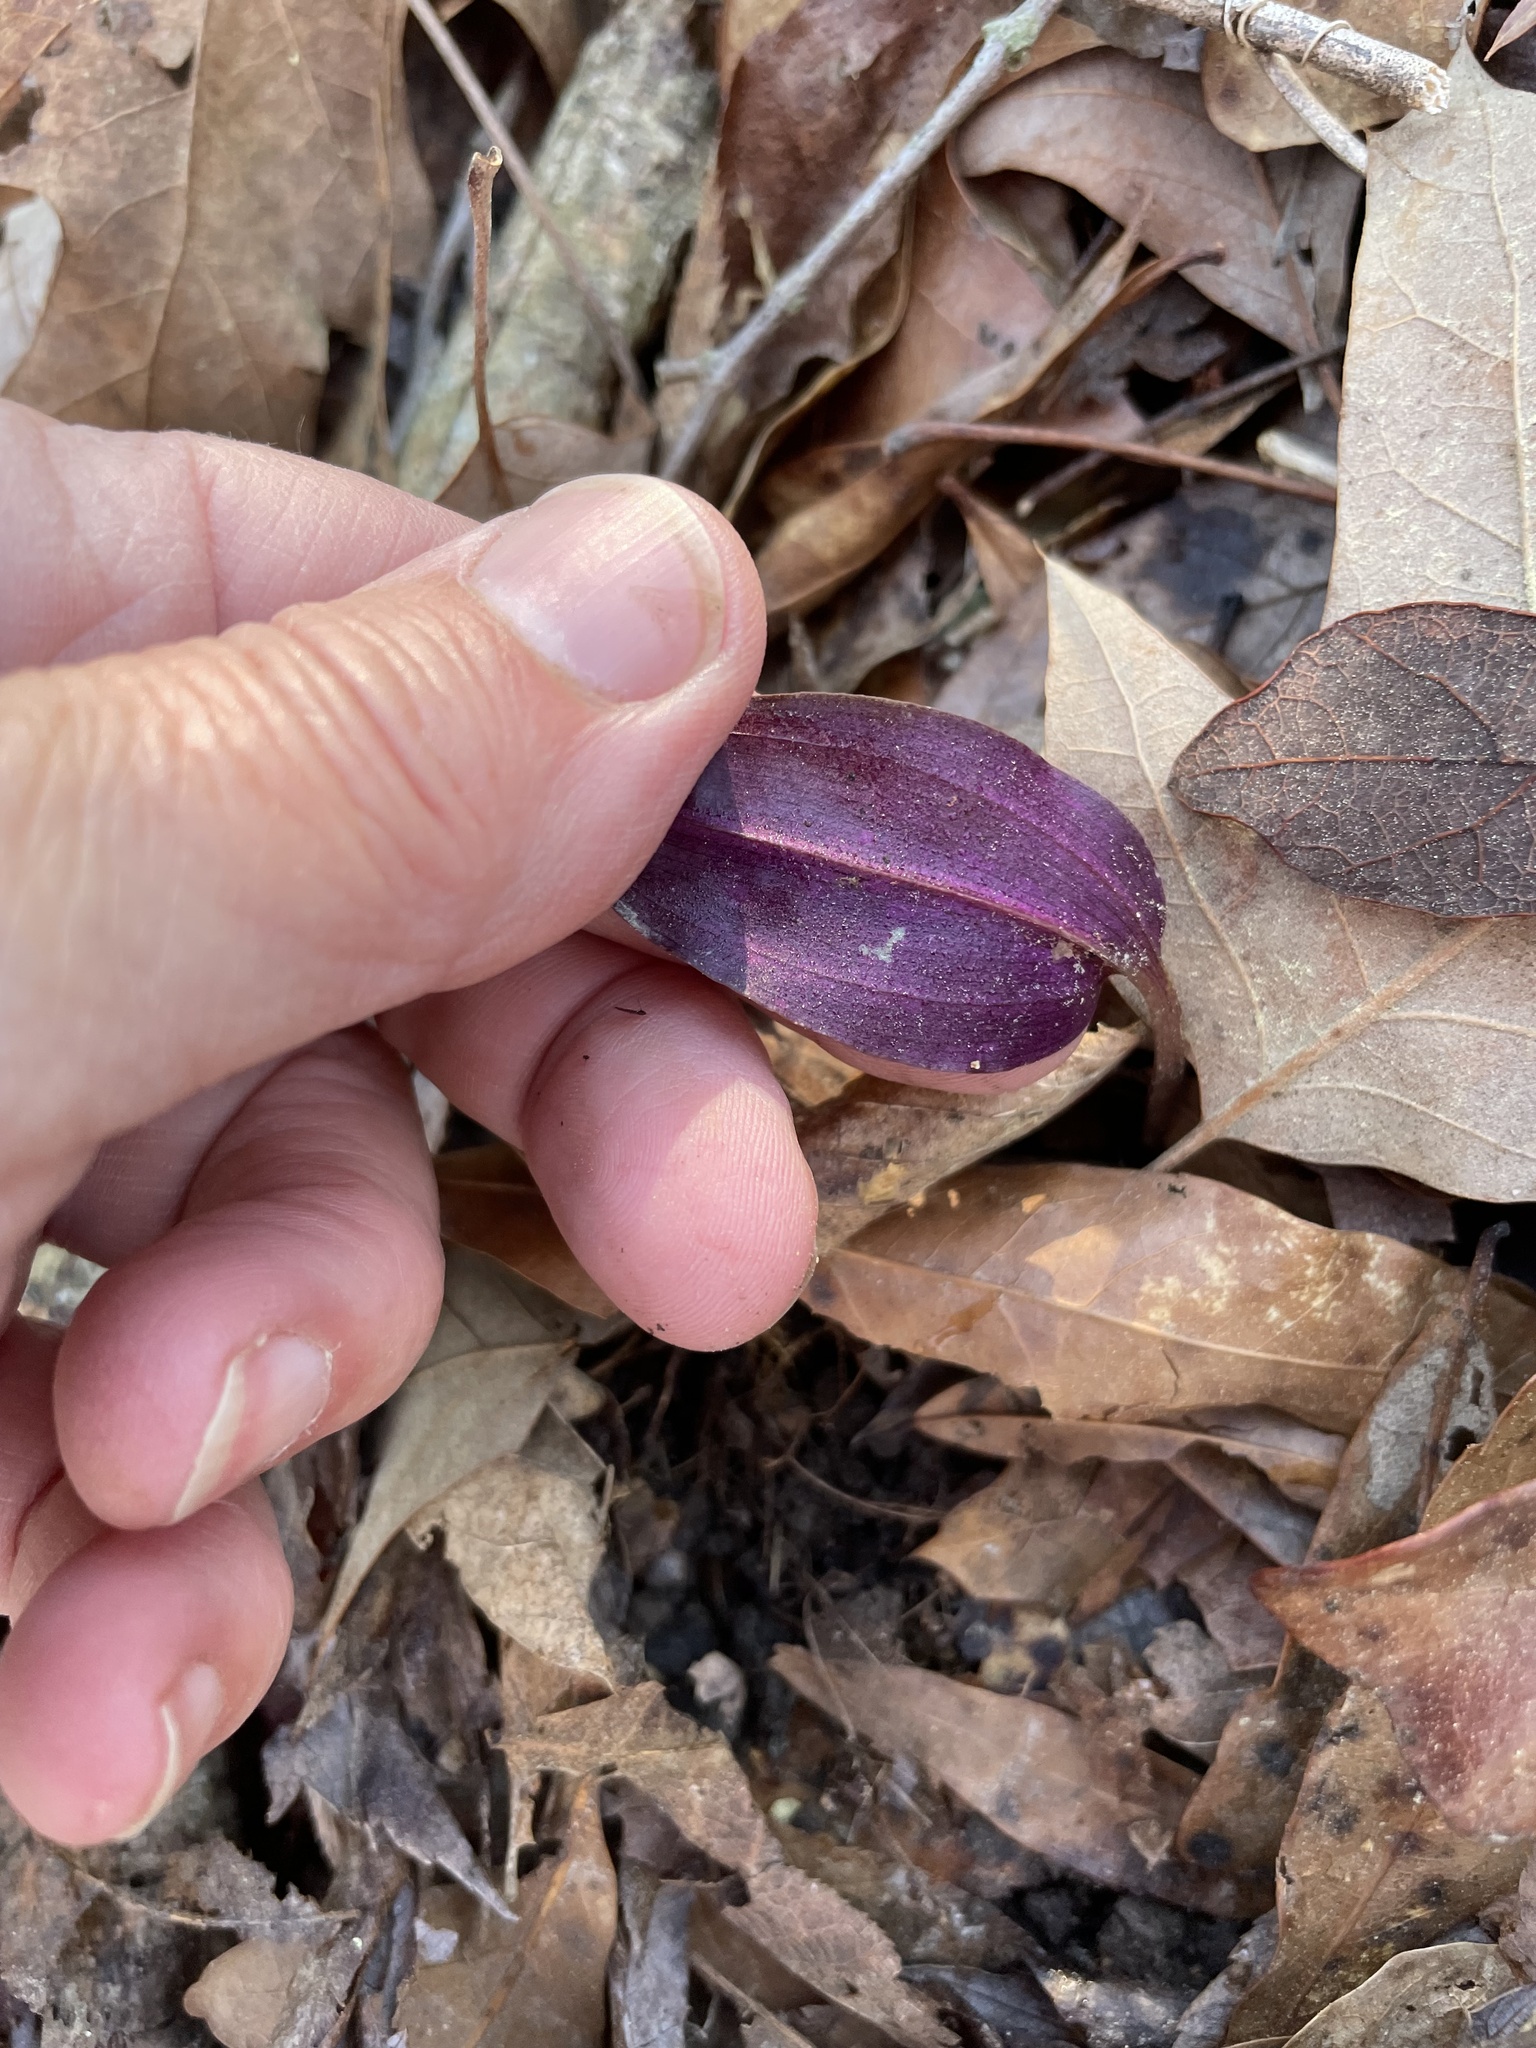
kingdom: Plantae
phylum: Tracheophyta
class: Liliopsida
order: Asparagales
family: Orchidaceae
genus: Tipularia
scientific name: Tipularia discolor
